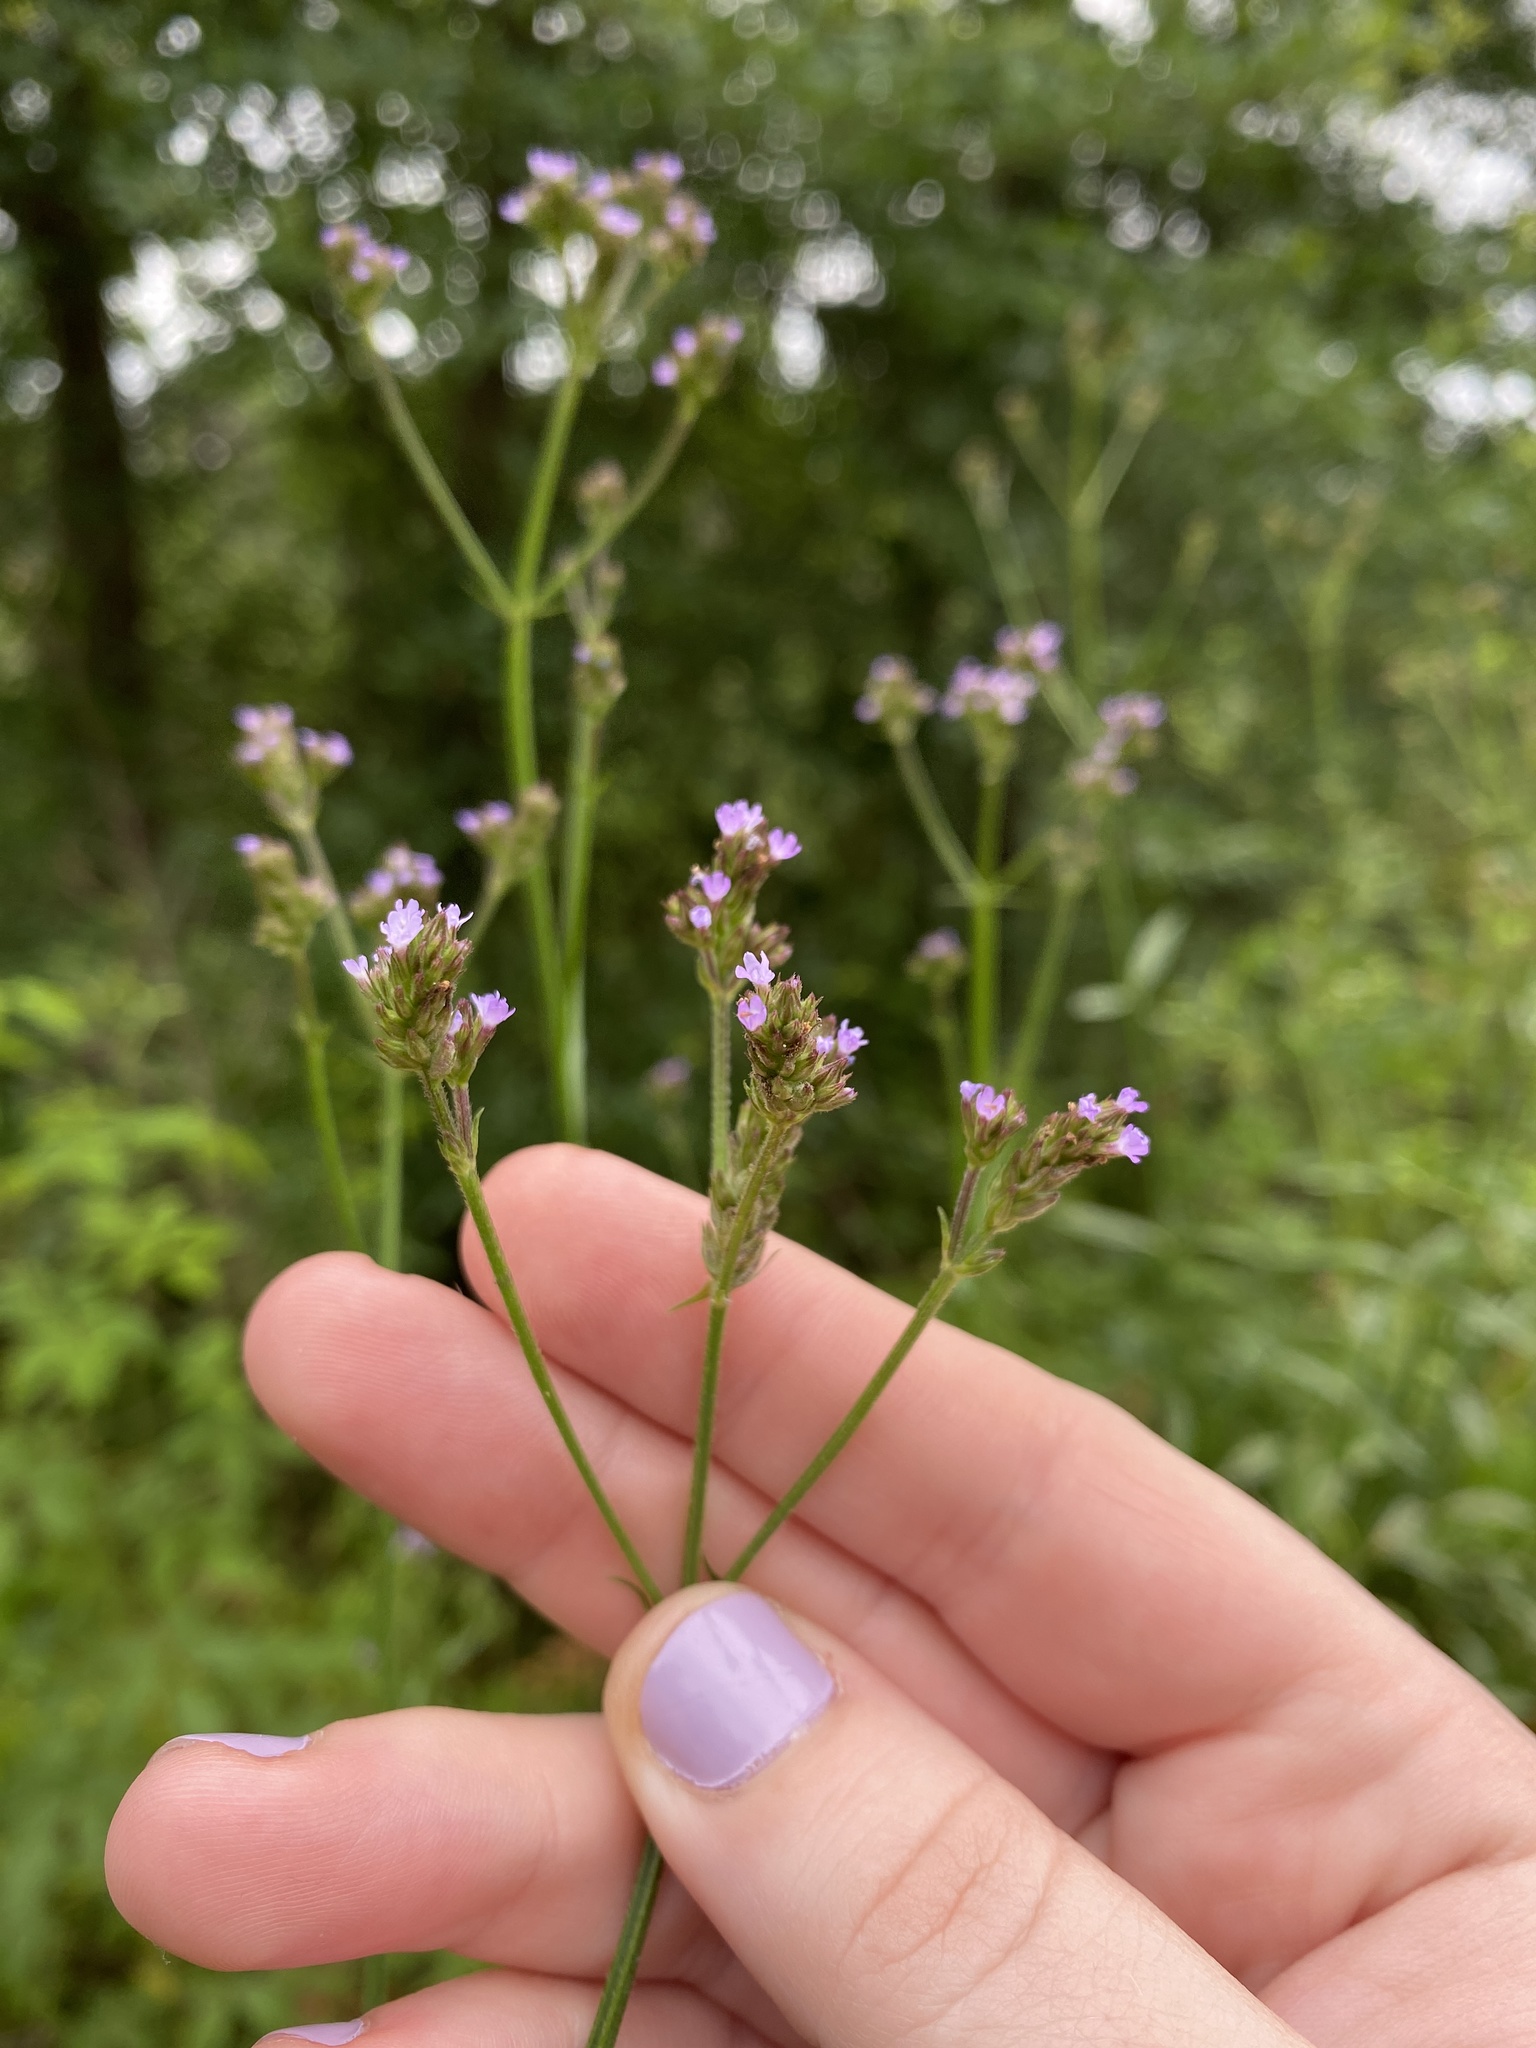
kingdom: Plantae
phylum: Tracheophyta
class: Magnoliopsida
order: Lamiales
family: Verbenaceae
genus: Verbena
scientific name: Verbena brasiliensis
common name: Brazilian vervain
